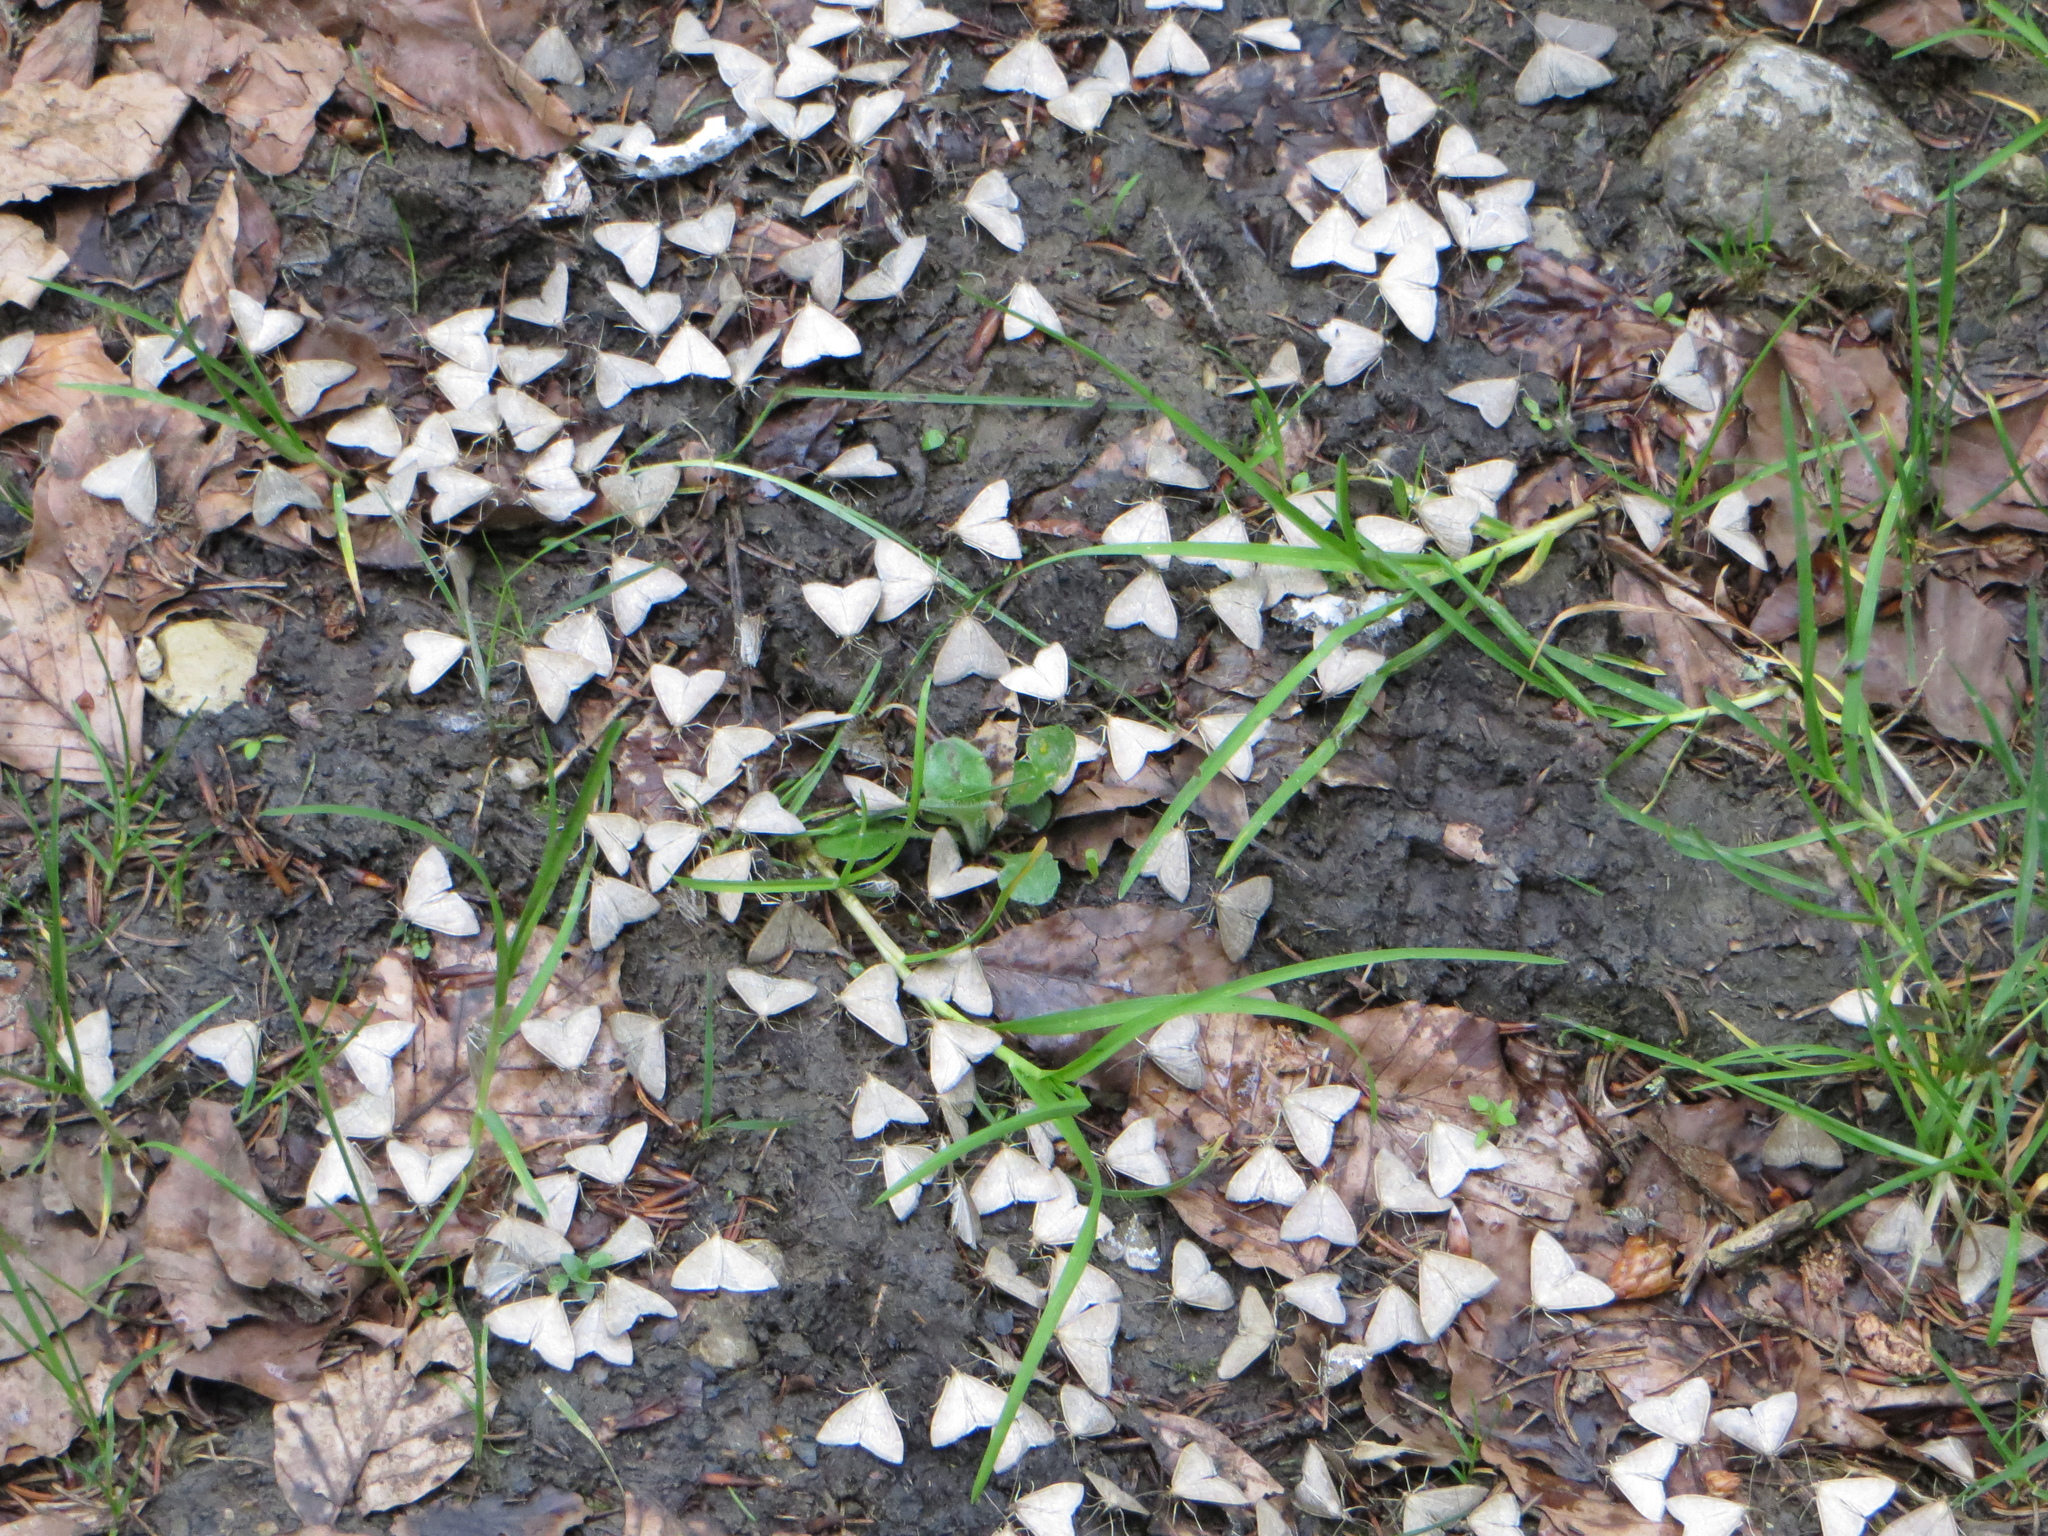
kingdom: Animalia
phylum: Arthropoda
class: Insecta
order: Lepidoptera
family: Crambidae
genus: Anania
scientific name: Anania fuscalis
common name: Cinerous pearl
